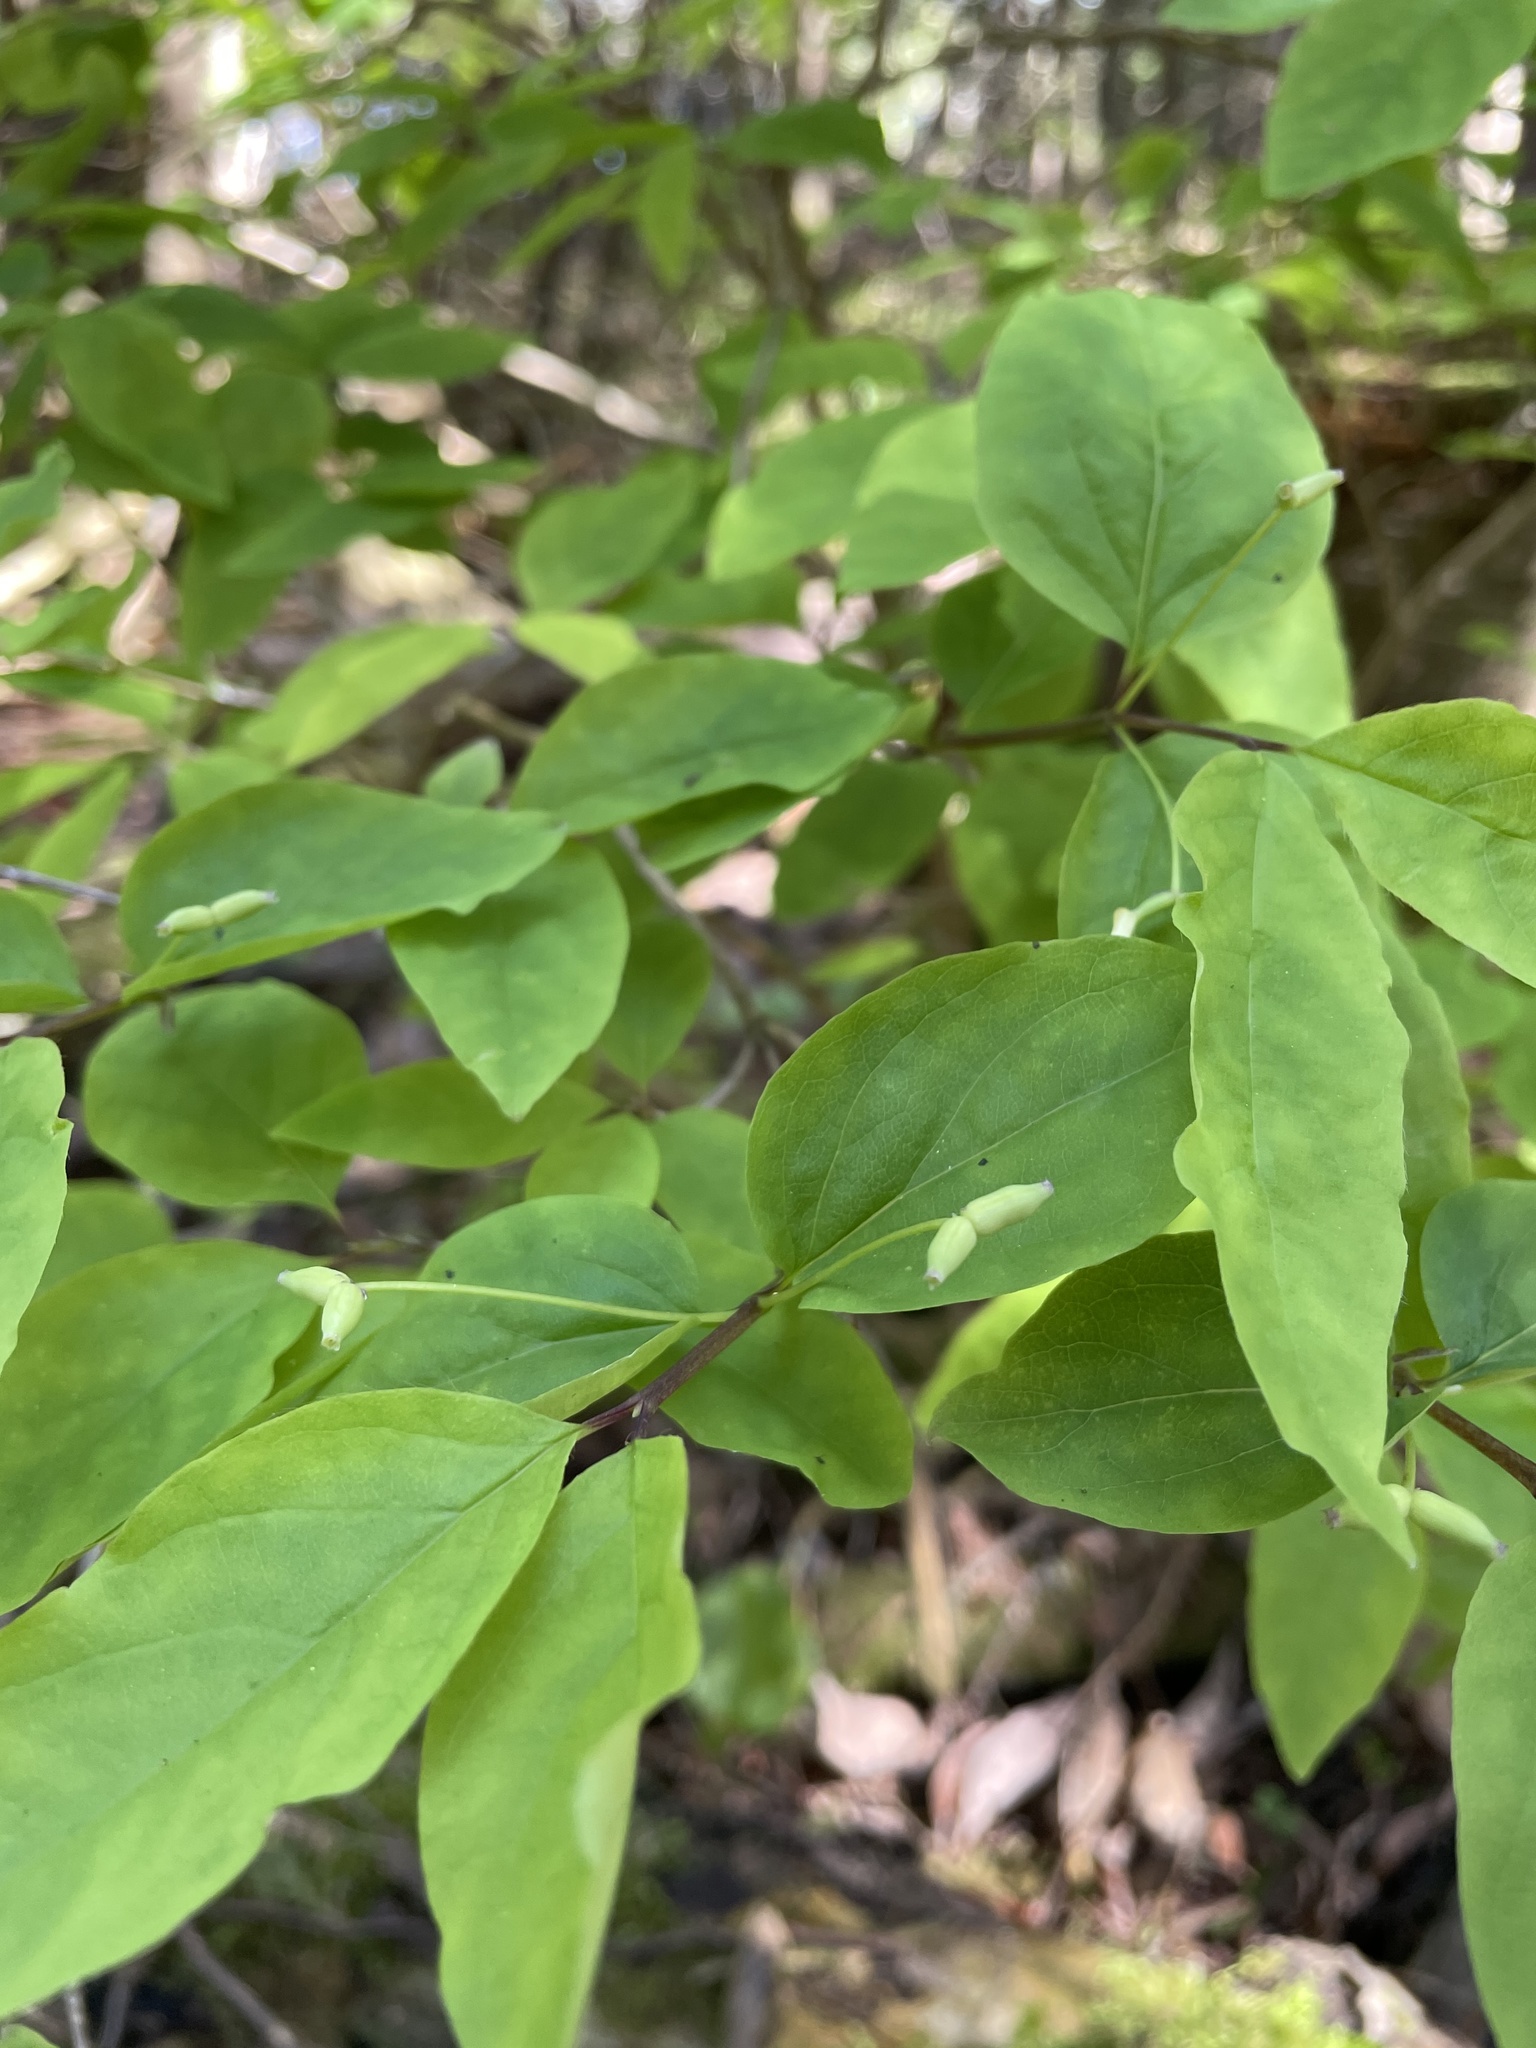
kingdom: Plantae
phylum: Tracheophyta
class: Magnoliopsida
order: Dipsacales
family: Caprifoliaceae
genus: Lonicera
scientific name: Lonicera canadensis
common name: American fly-honeysuckle
